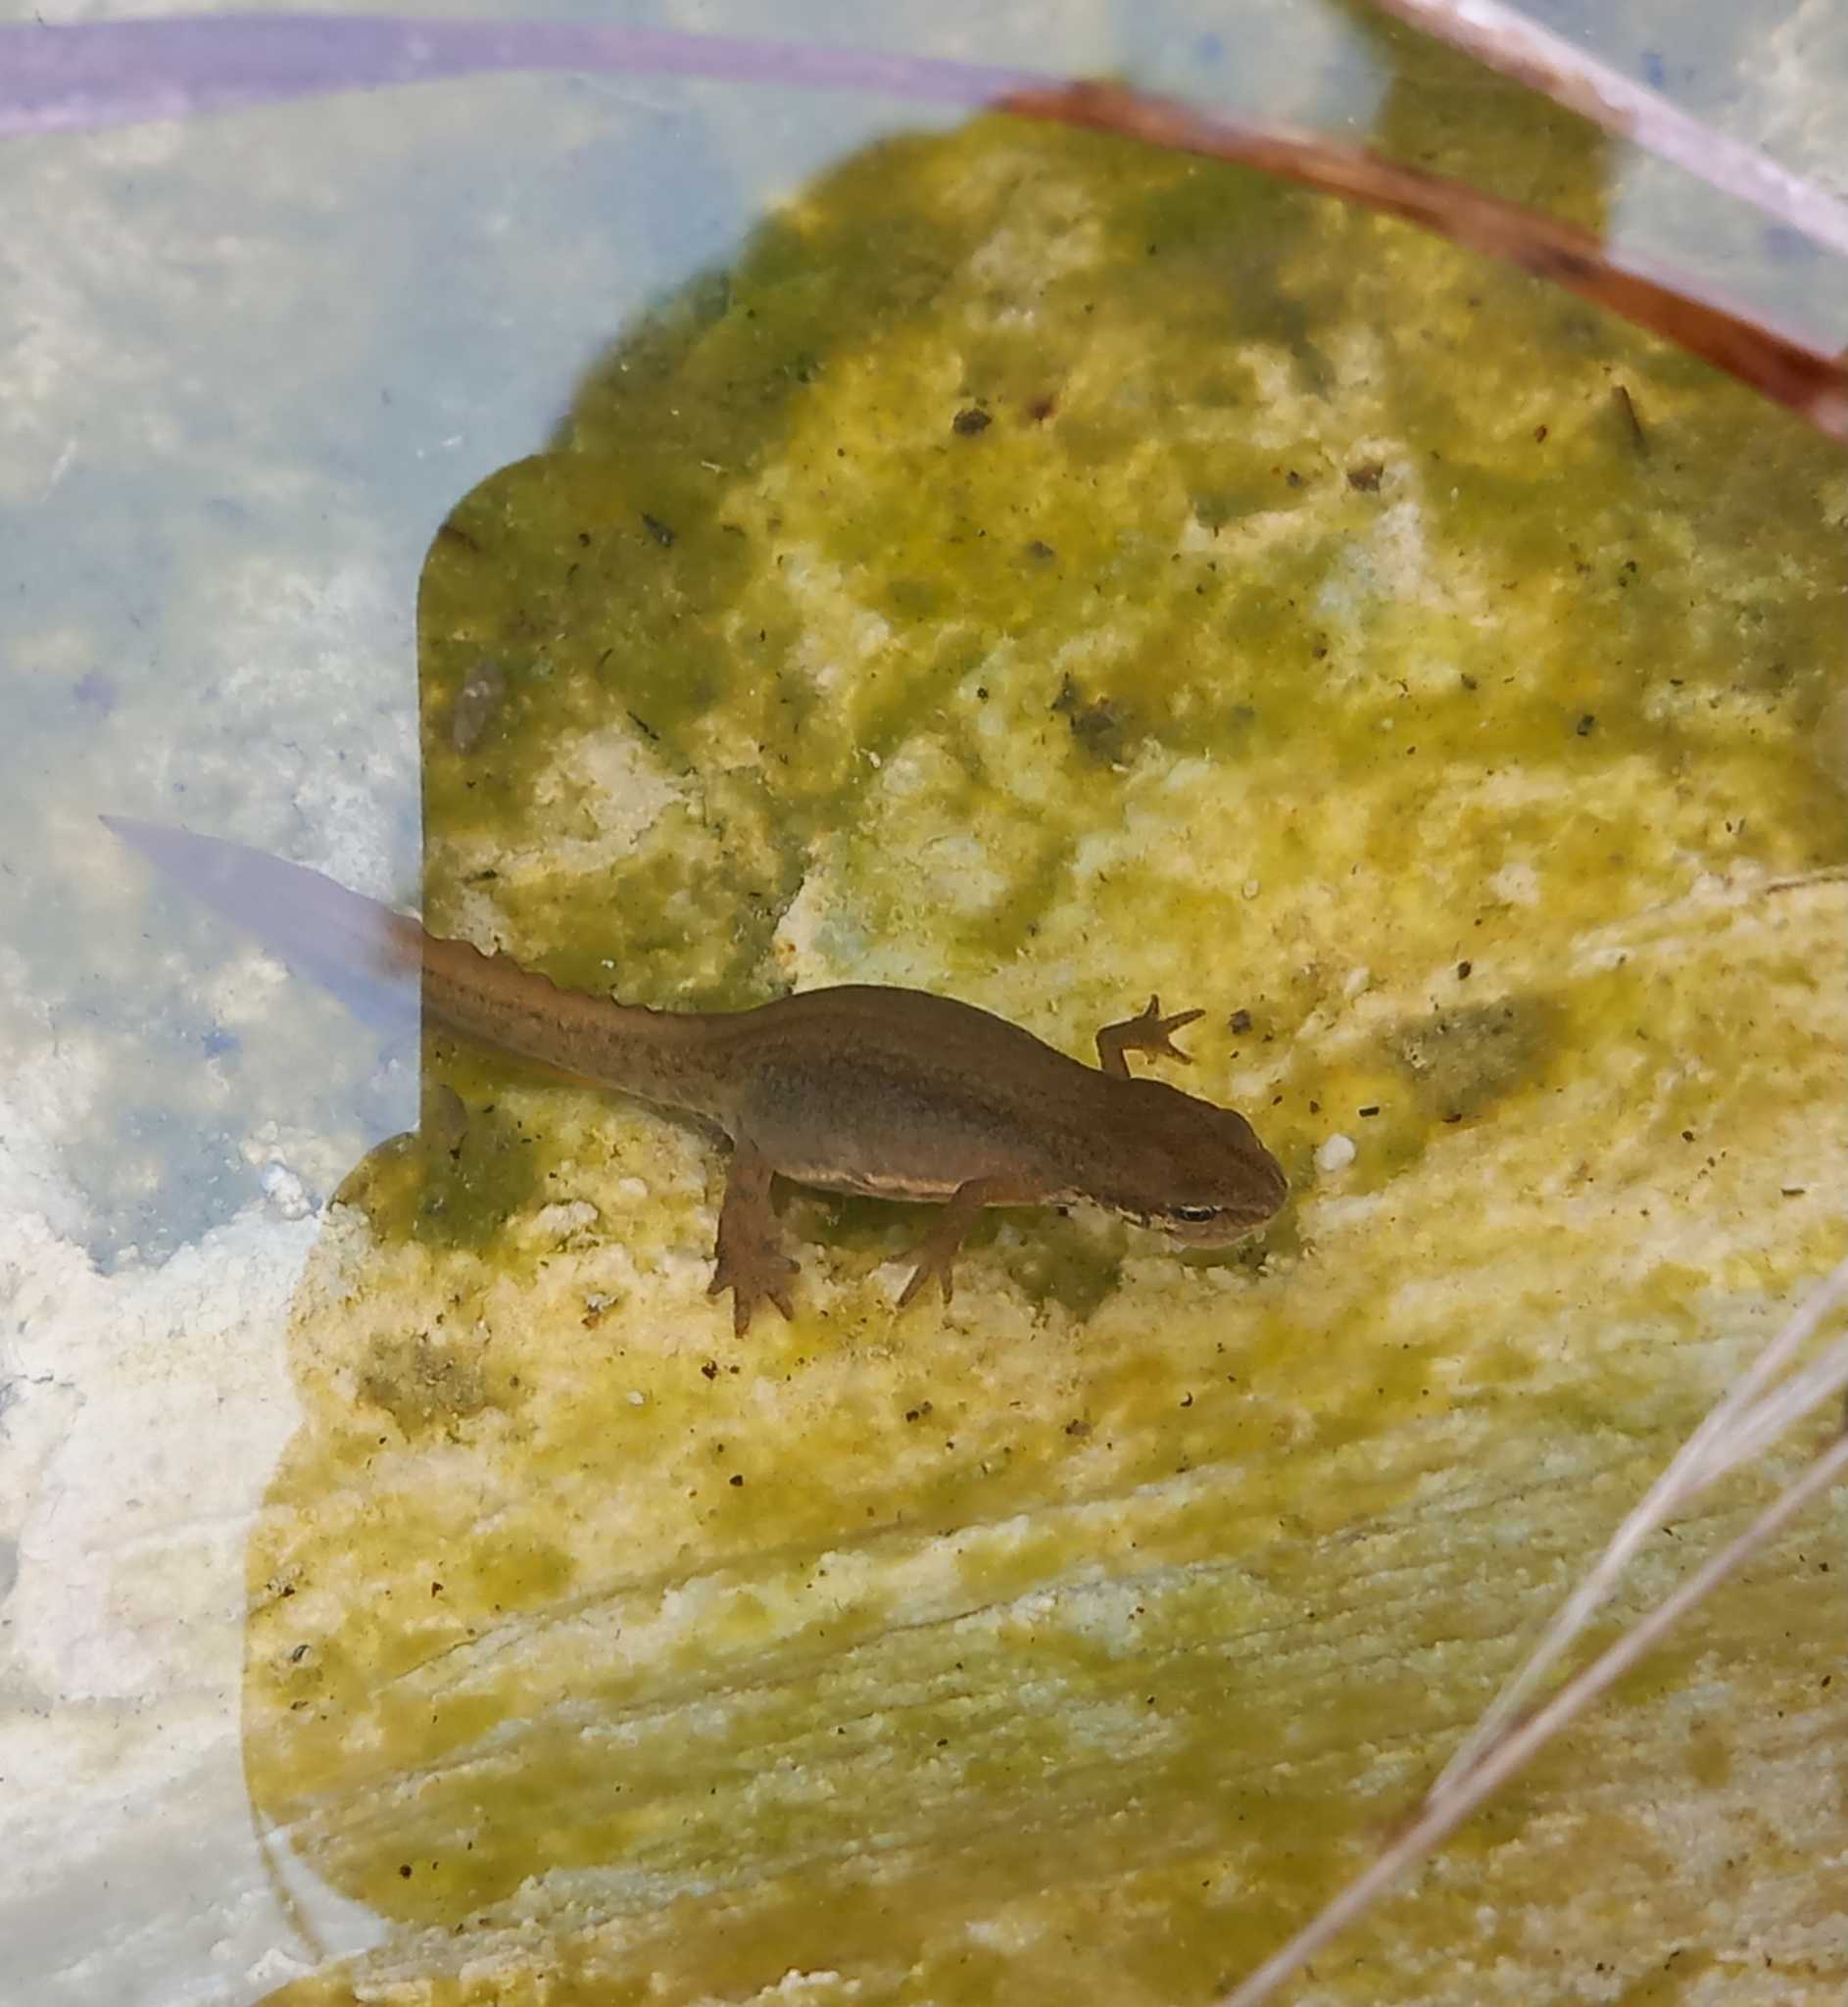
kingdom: Animalia
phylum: Chordata
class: Amphibia
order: Caudata
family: Salamandridae
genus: Lissotriton
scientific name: Lissotriton vulgaris
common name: Smooth newt
